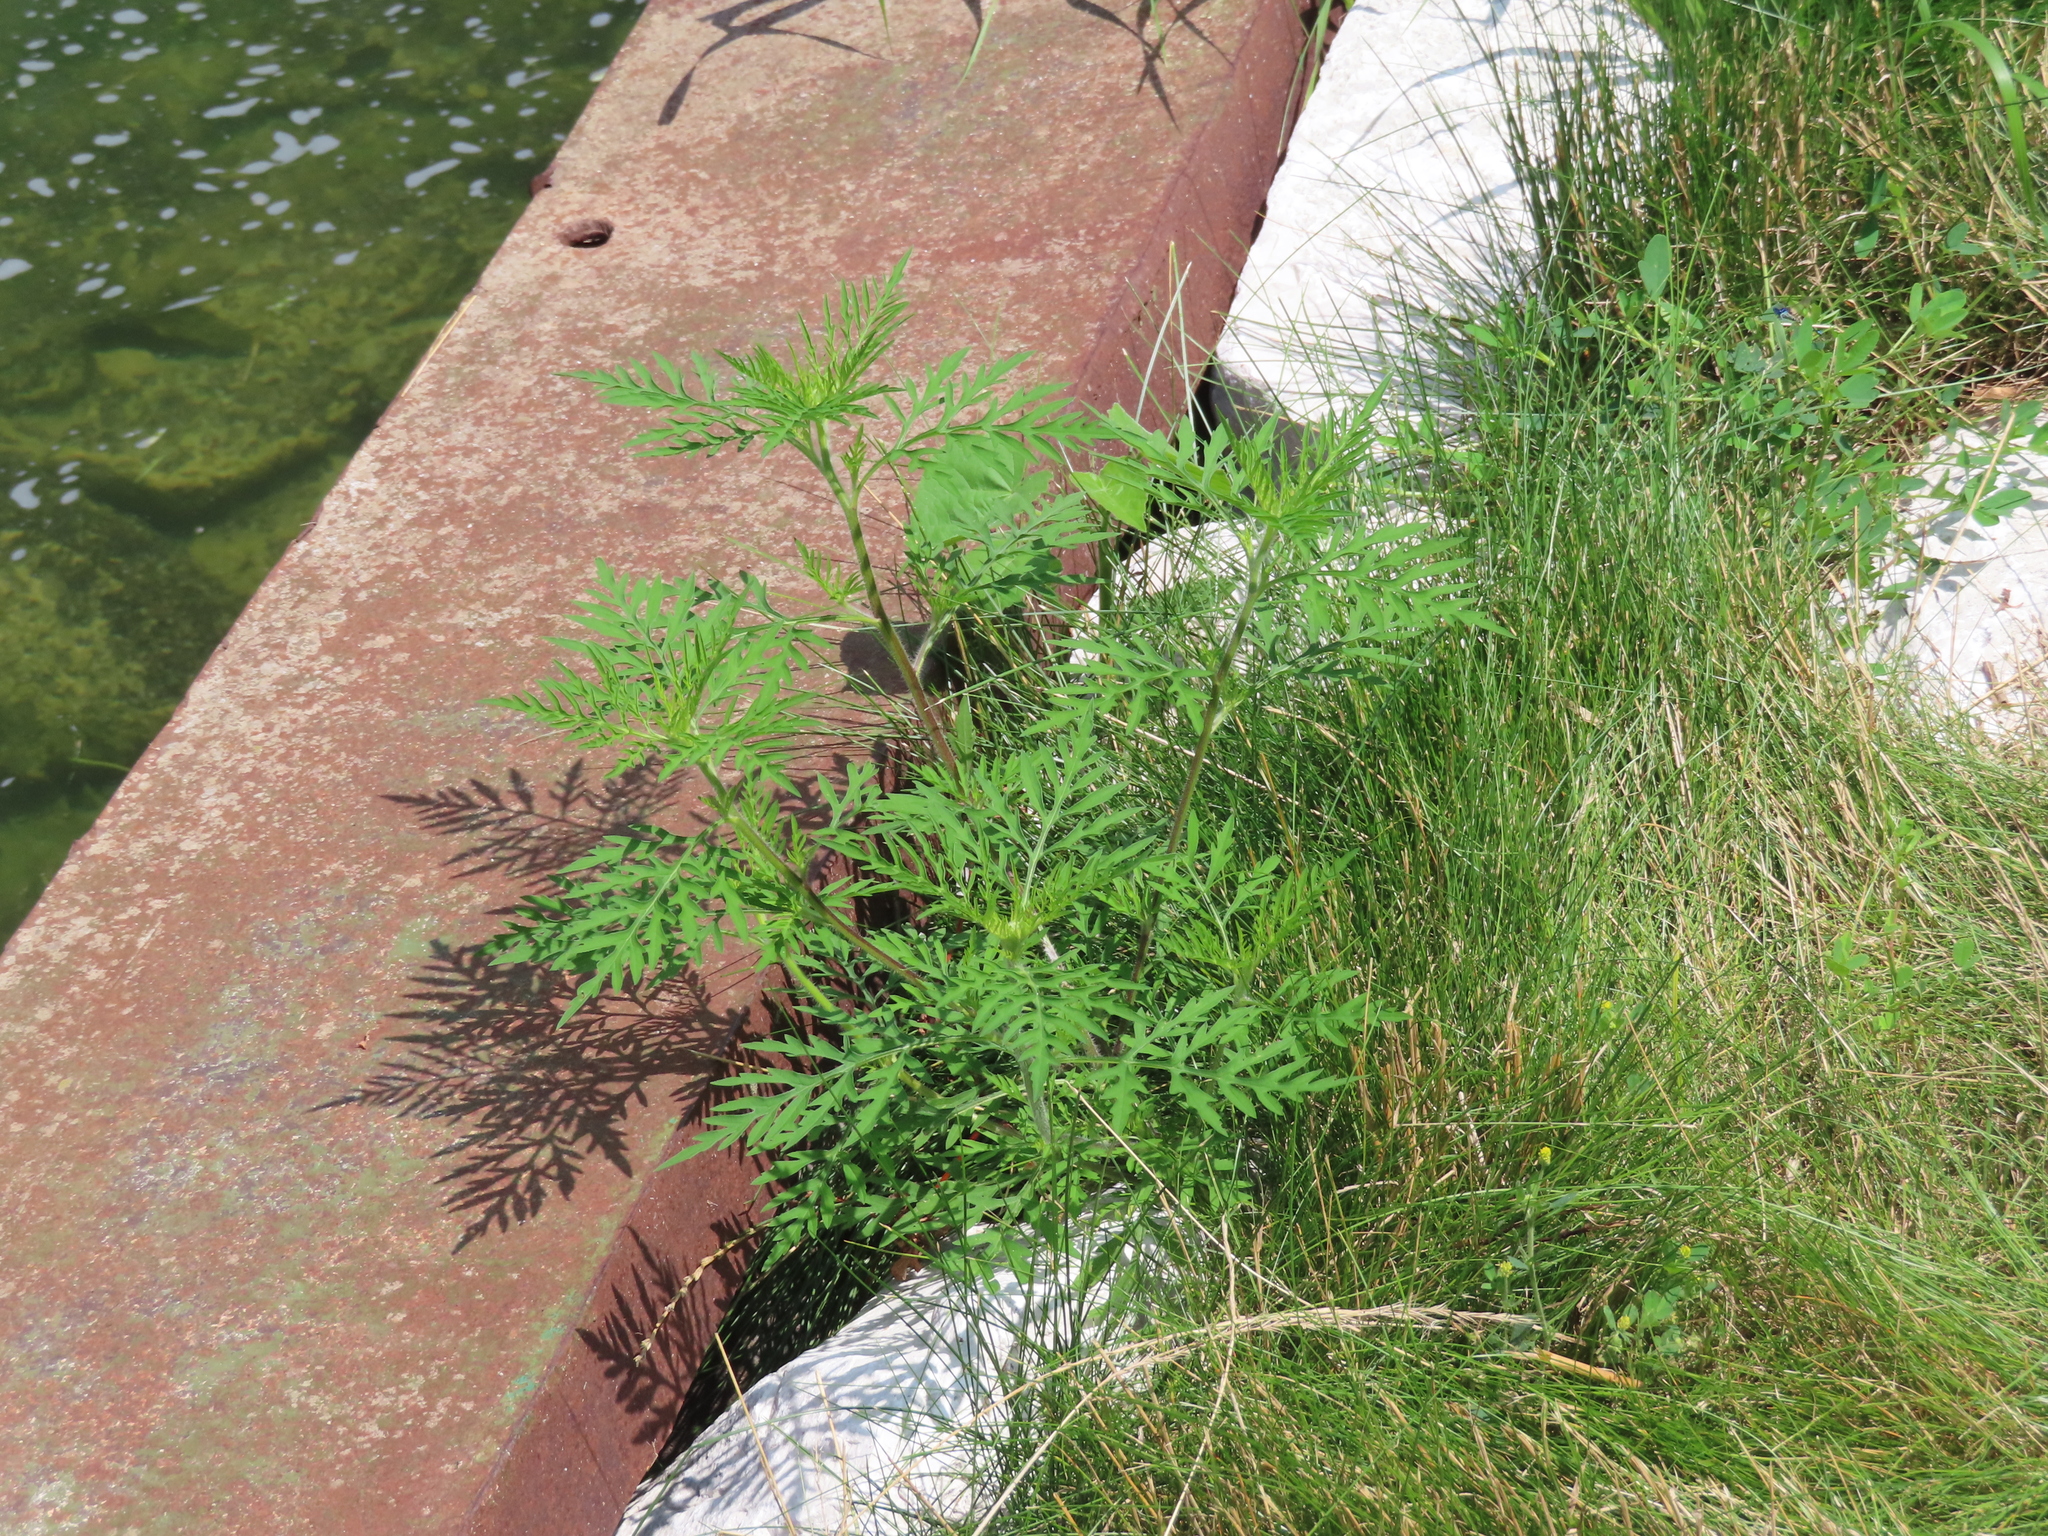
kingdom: Plantae
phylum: Tracheophyta
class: Magnoliopsida
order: Asterales
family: Asteraceae
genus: Ambrosia
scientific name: Ambrosia artemisiifolia
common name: Annual ragweed
